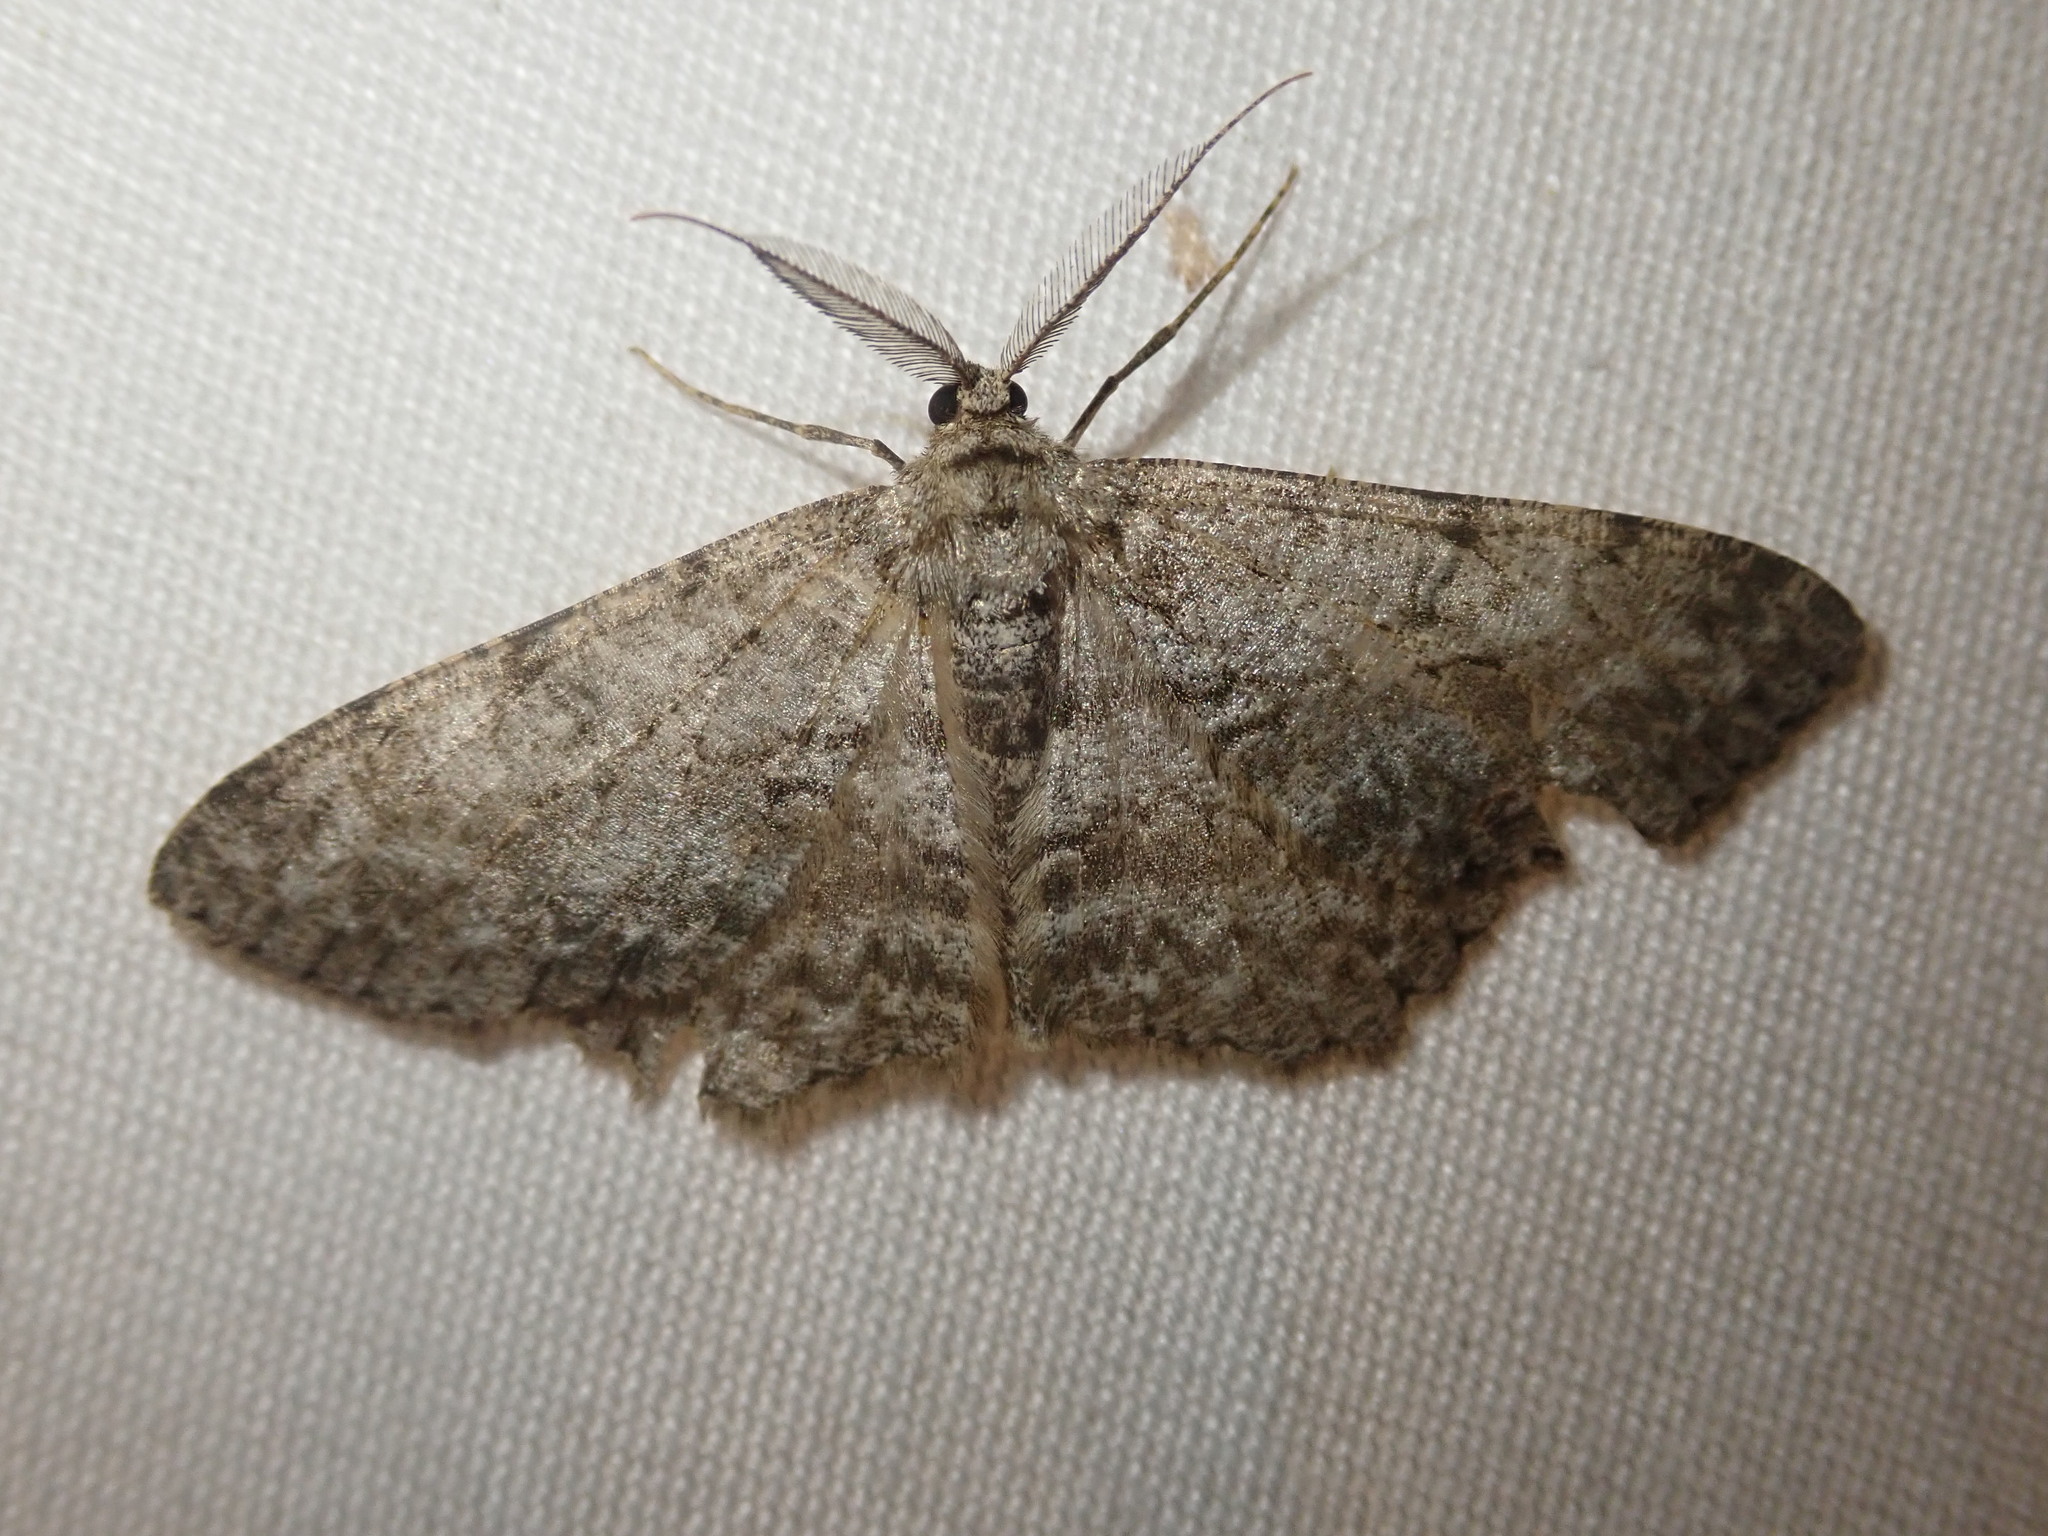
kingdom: Animalia
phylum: Arthropoda
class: Insecta
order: Lepidoptera
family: Geometridae
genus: Hypomecis
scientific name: Hypomecis punctinalis
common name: Pale oak beauty
